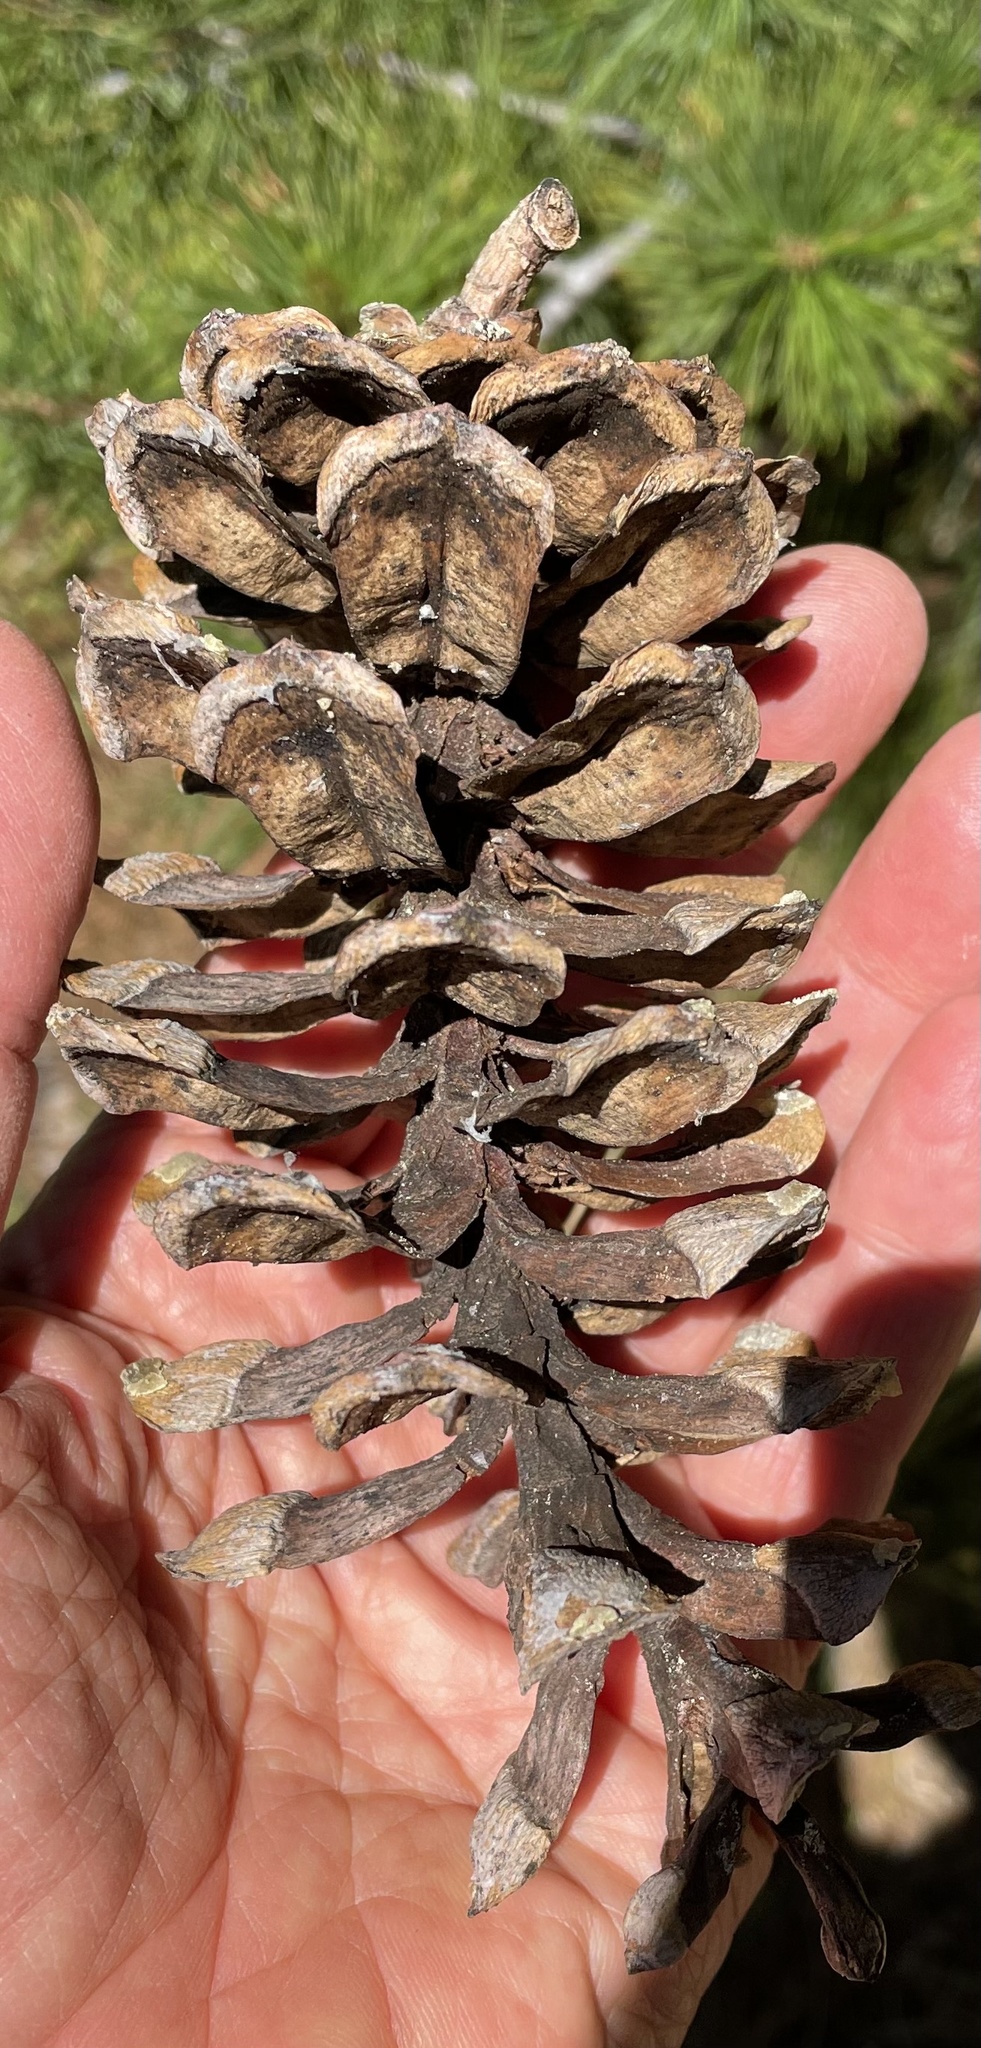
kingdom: Plantae
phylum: Tracheophyta
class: Pinopsida
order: Pinales
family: Pinaceae
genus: Pinus
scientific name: Pinus monticola
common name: Western white pine
